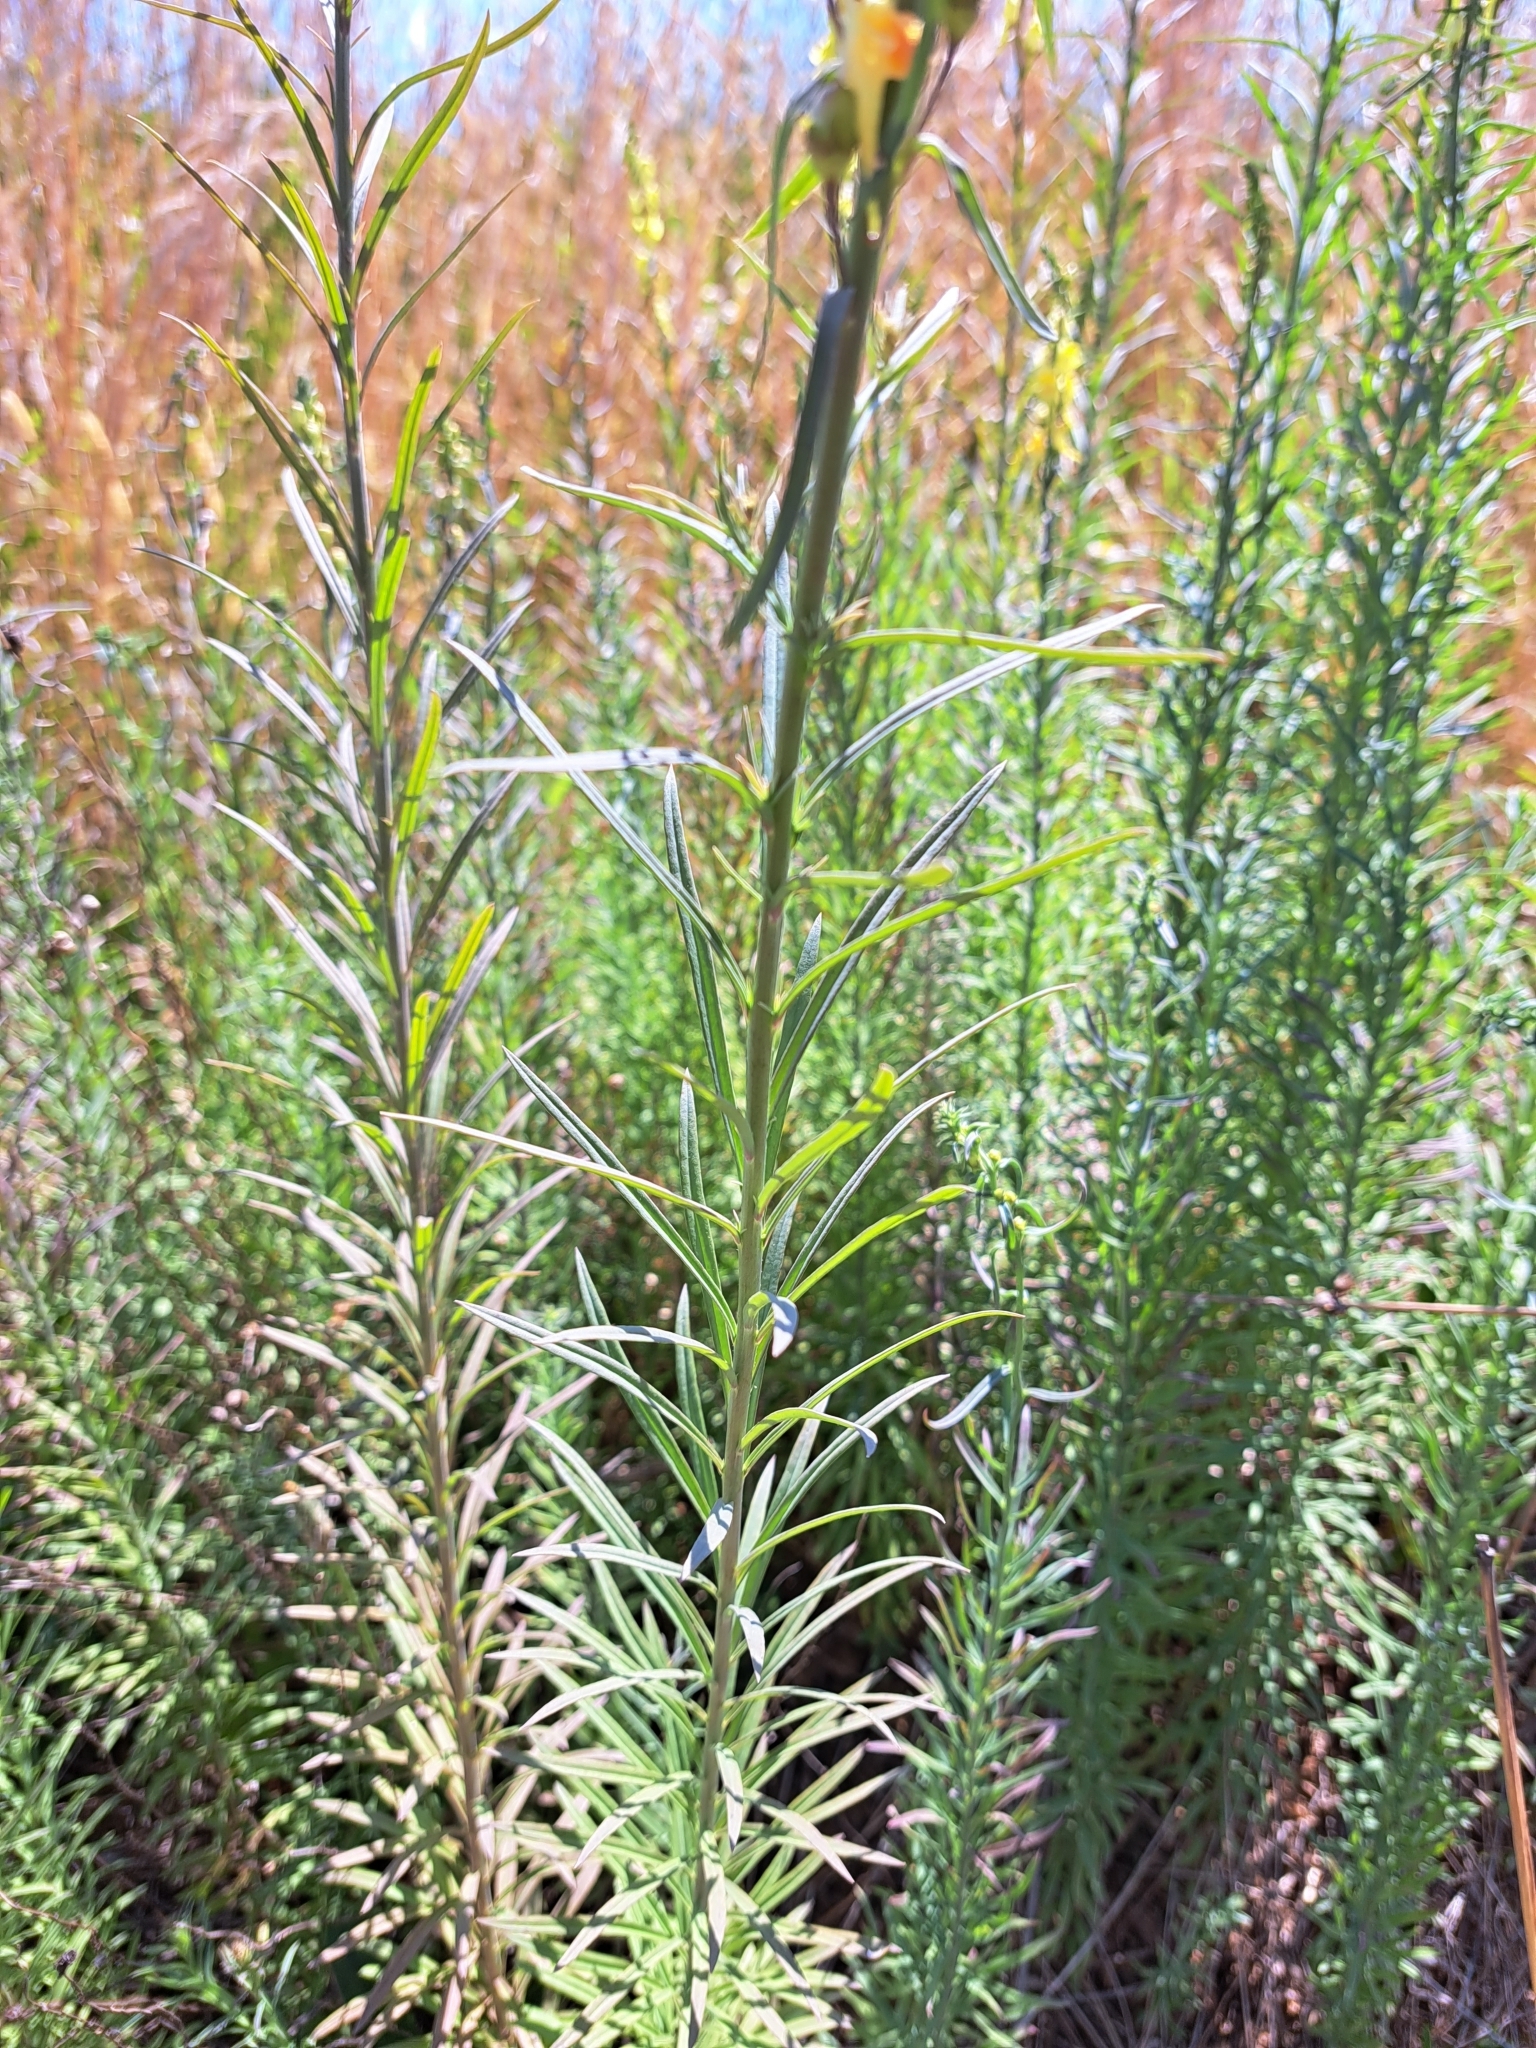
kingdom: Plantae
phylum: Tracheophyta
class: Magnoliopsida
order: Lamiales
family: Plantaginaceae
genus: Linaria
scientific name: Linaria vulgaris
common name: Butter and eggs
